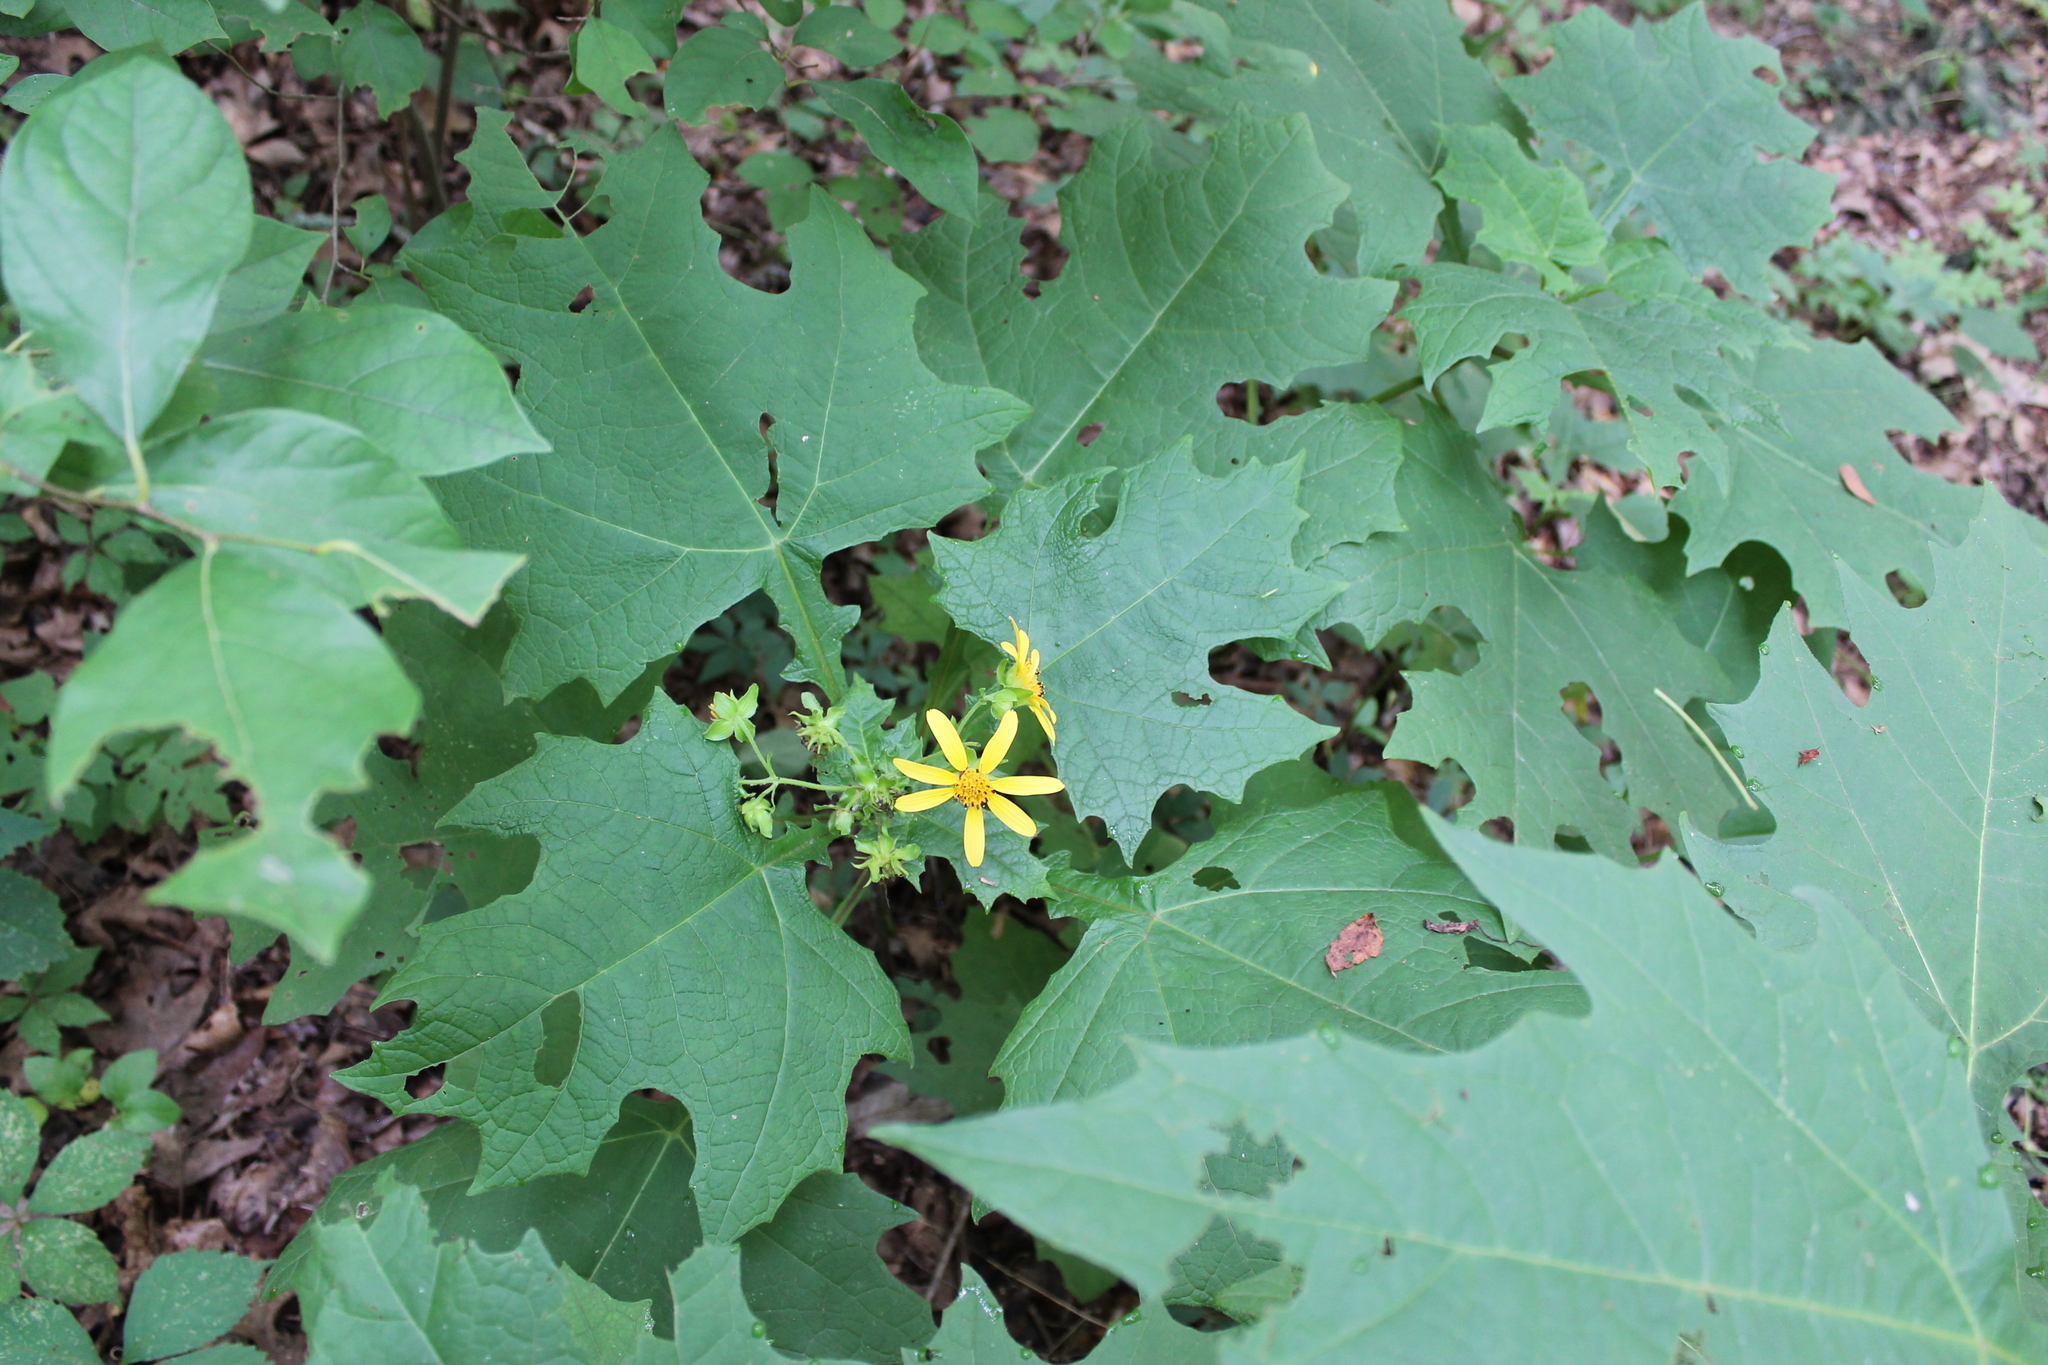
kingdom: Plantae
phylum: Tracheophyta
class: Magnoliopsida
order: Asterales
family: Asteraceae
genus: Smallanthus
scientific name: Smallanthus uvedalia
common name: Bear's-foot
